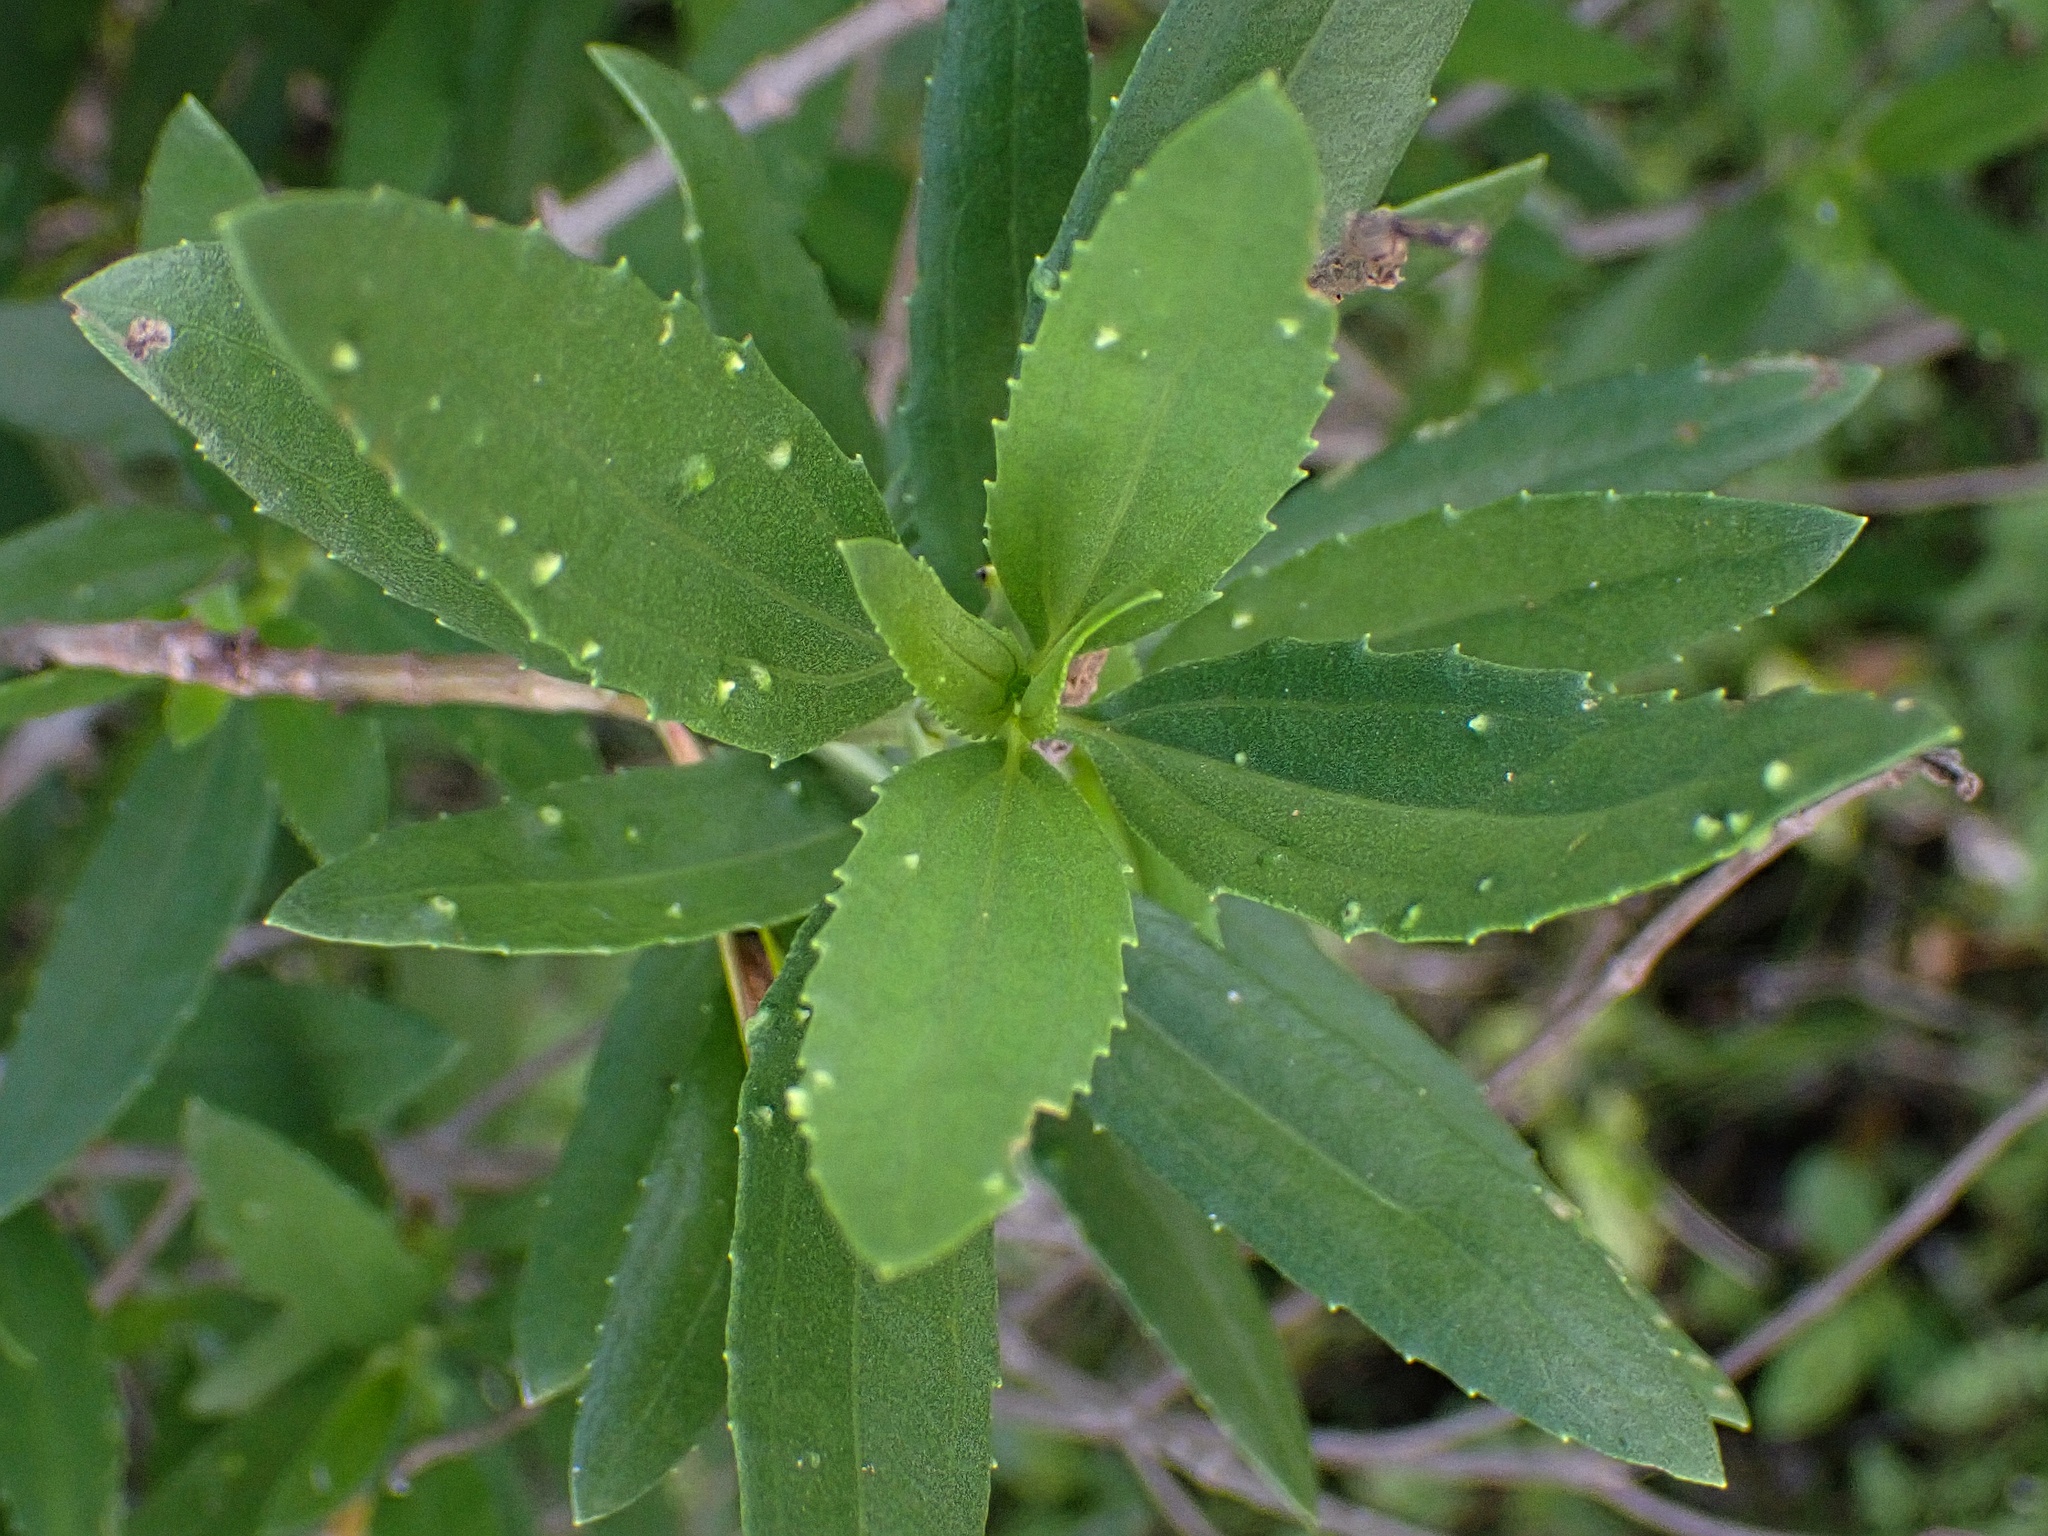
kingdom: Plantae
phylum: Tracheophyta
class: Magnoliopsida
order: Asterales
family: Asteraceae
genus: Iva
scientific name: Iva frutescens
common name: Big-leaved marsh-elder
